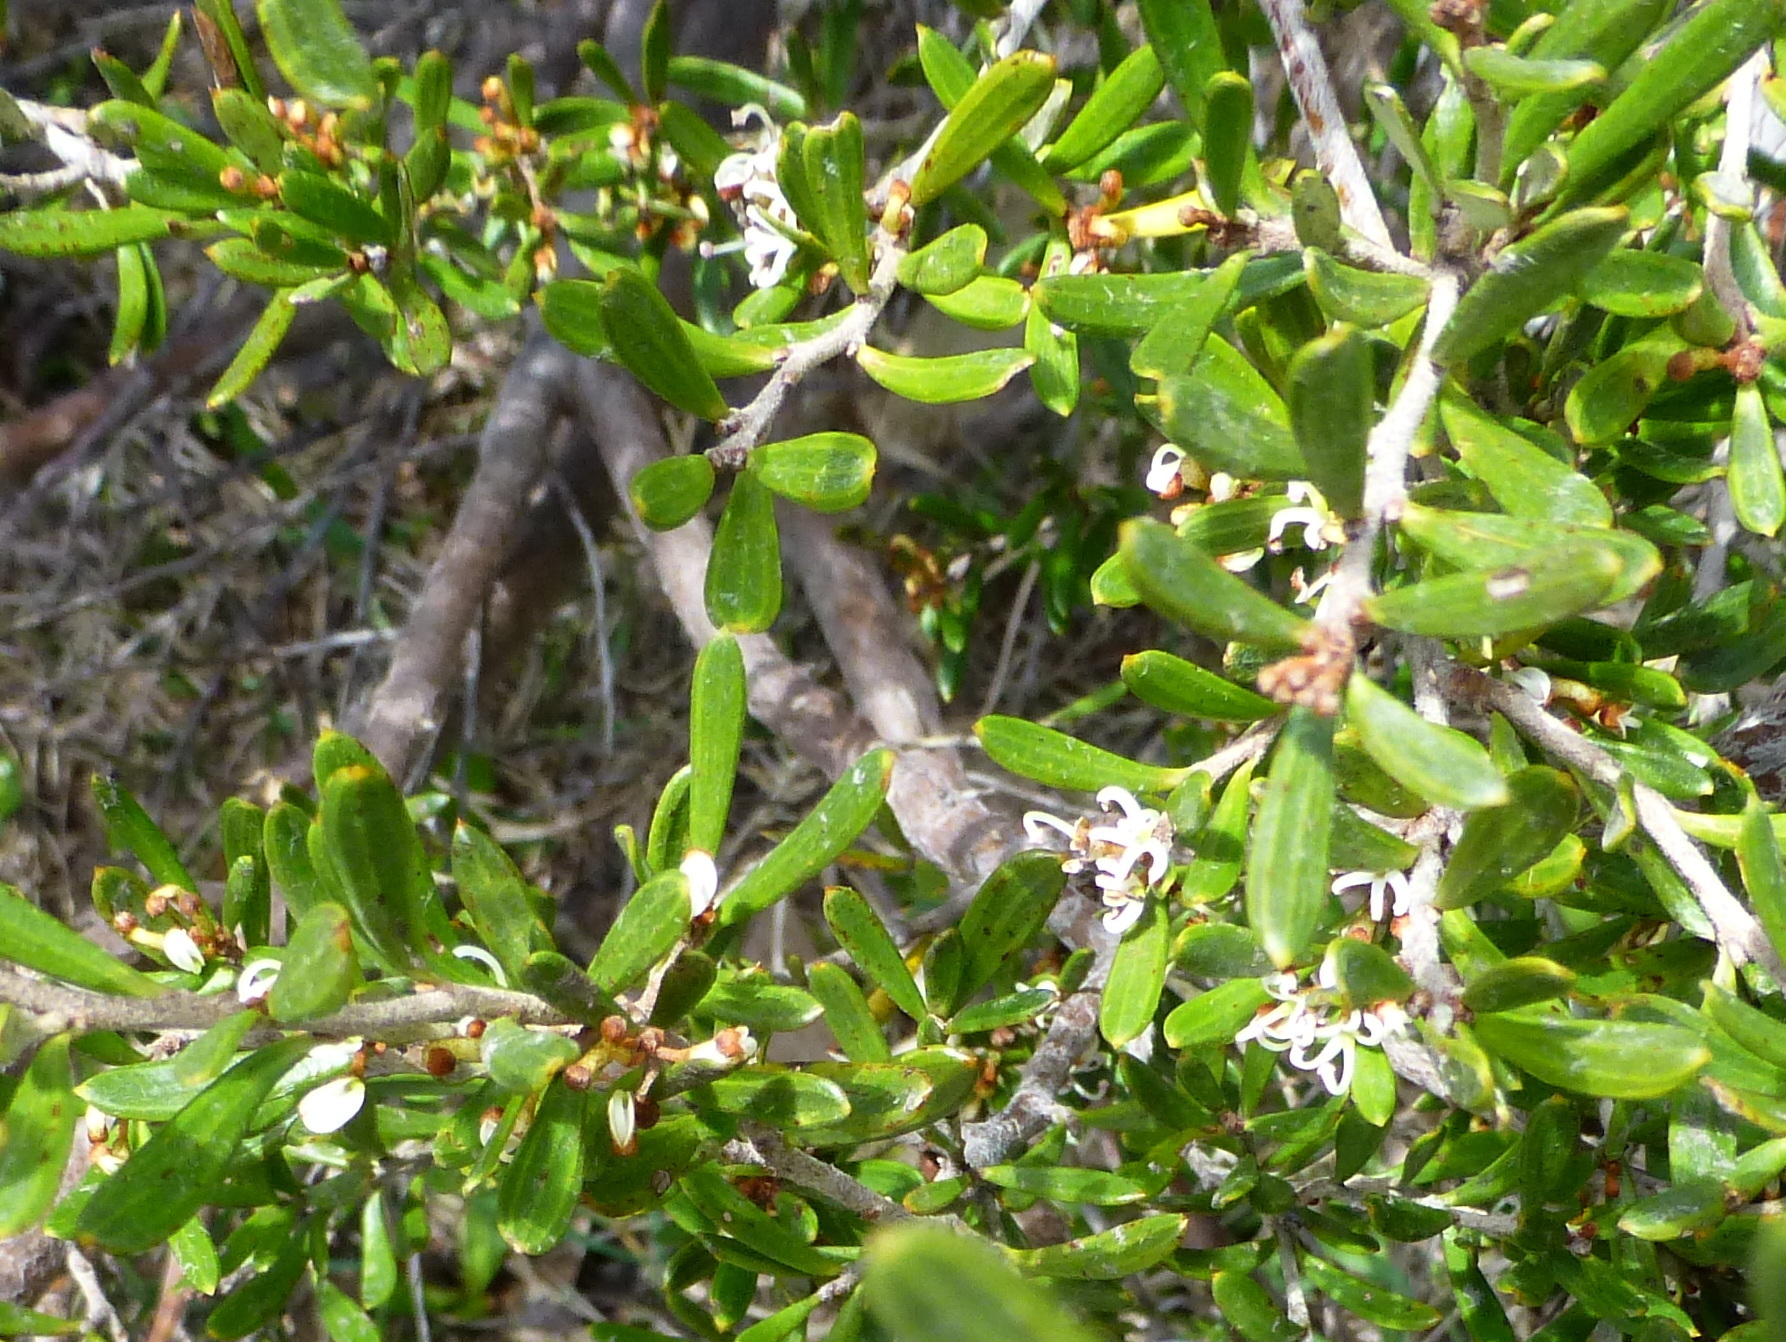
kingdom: Plantae
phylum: Tracheophyta
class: Magnoliopsida
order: Proteales
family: Proteaceae
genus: Grevillea
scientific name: Grevillea australis
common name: Alpine grevillea
